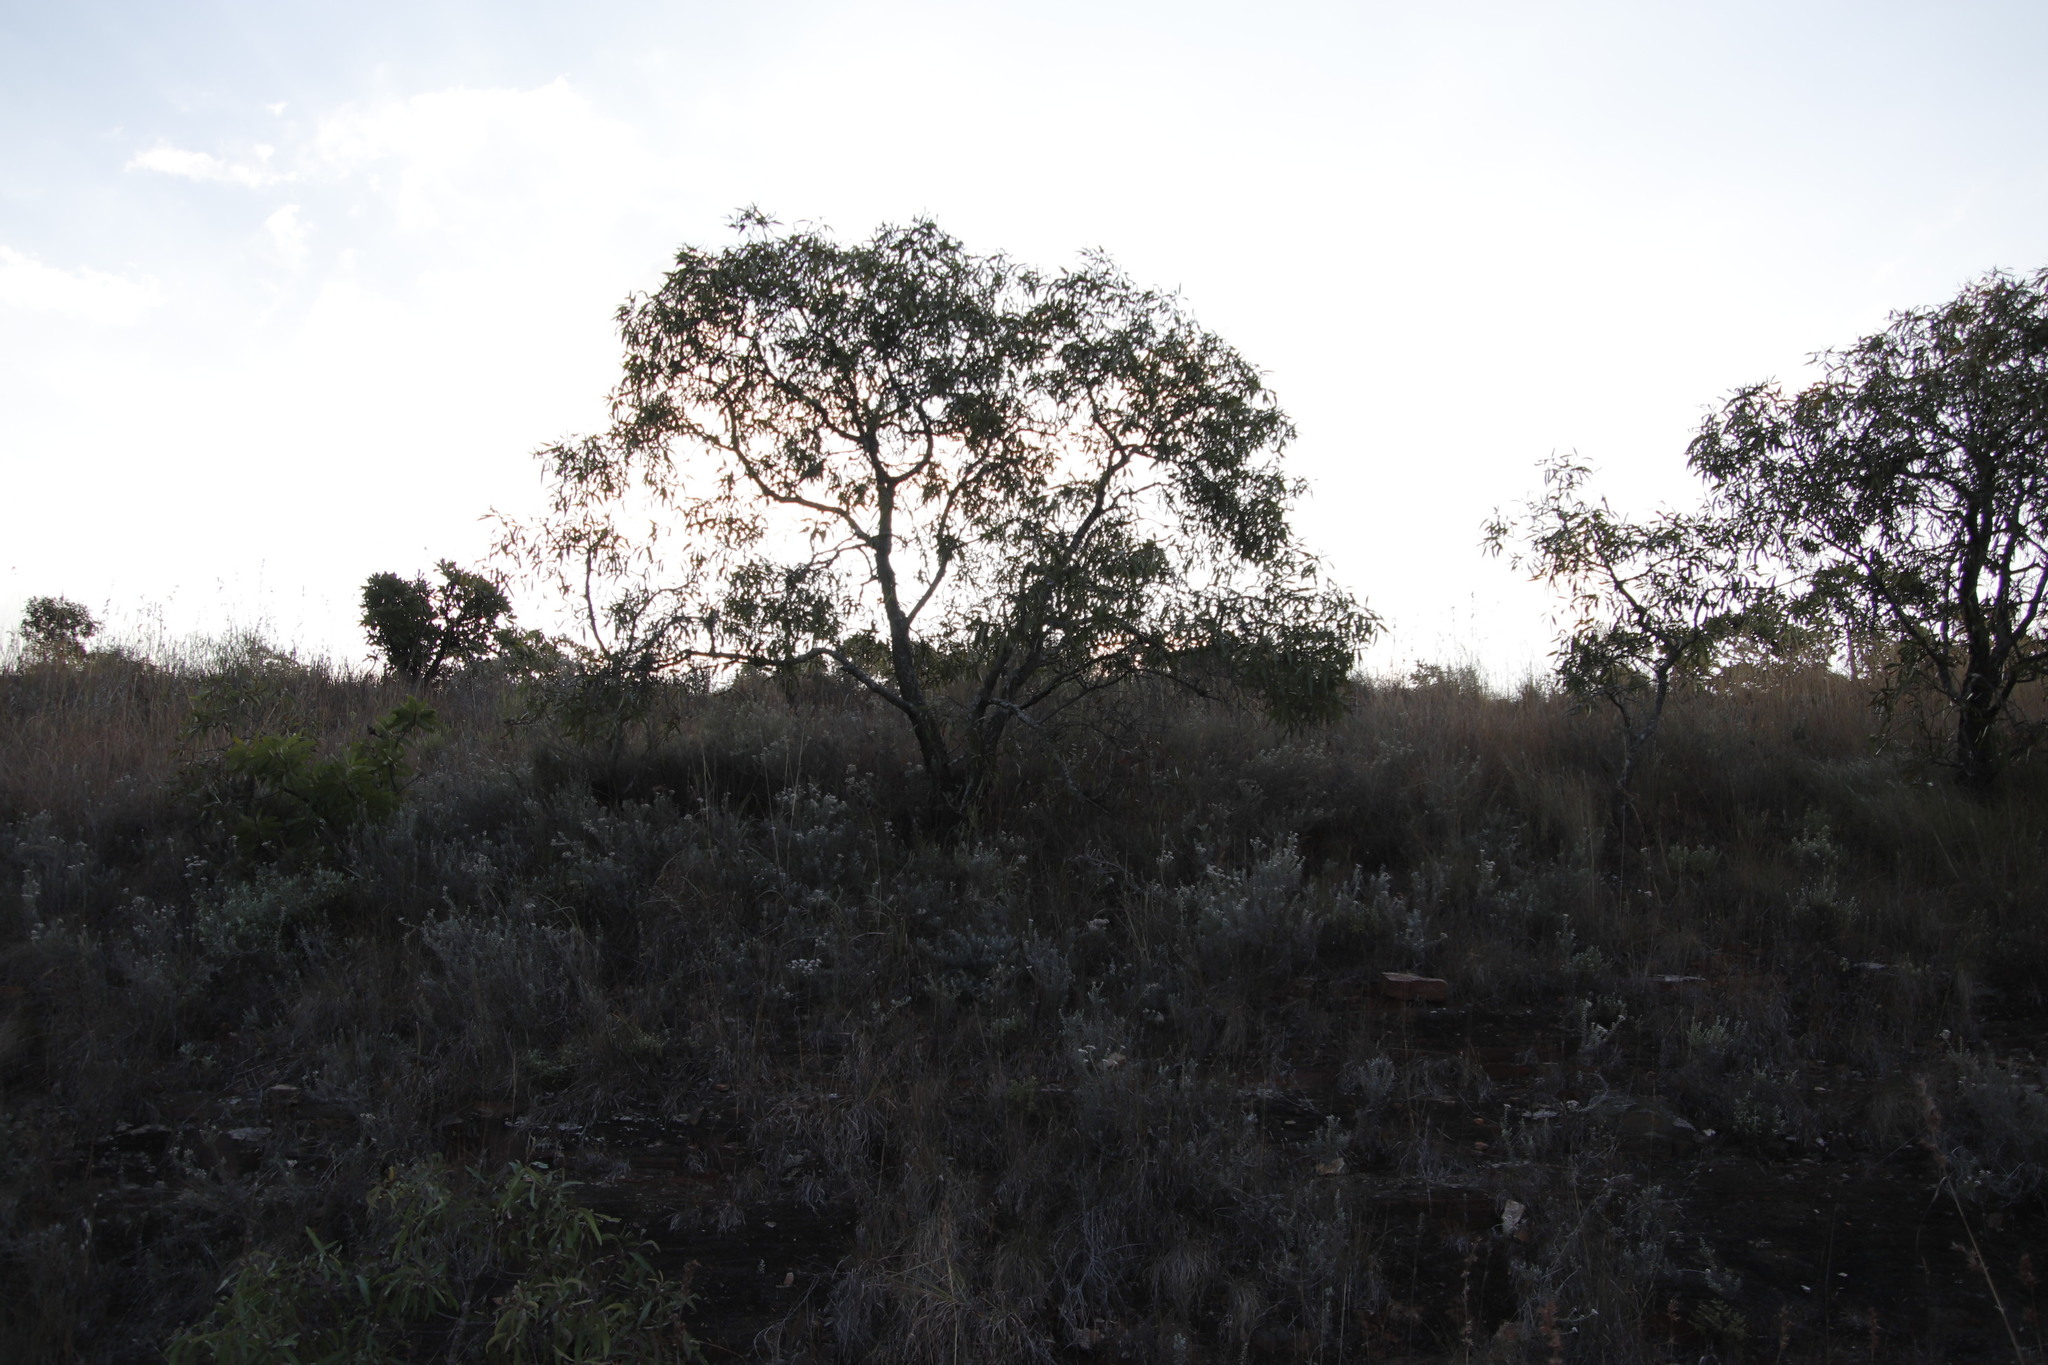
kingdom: Plantae
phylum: Tracheophyta
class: Magnoliopsida
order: Proteales
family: Proteaceae
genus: Faurea
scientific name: Faurea saligna
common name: African bean
